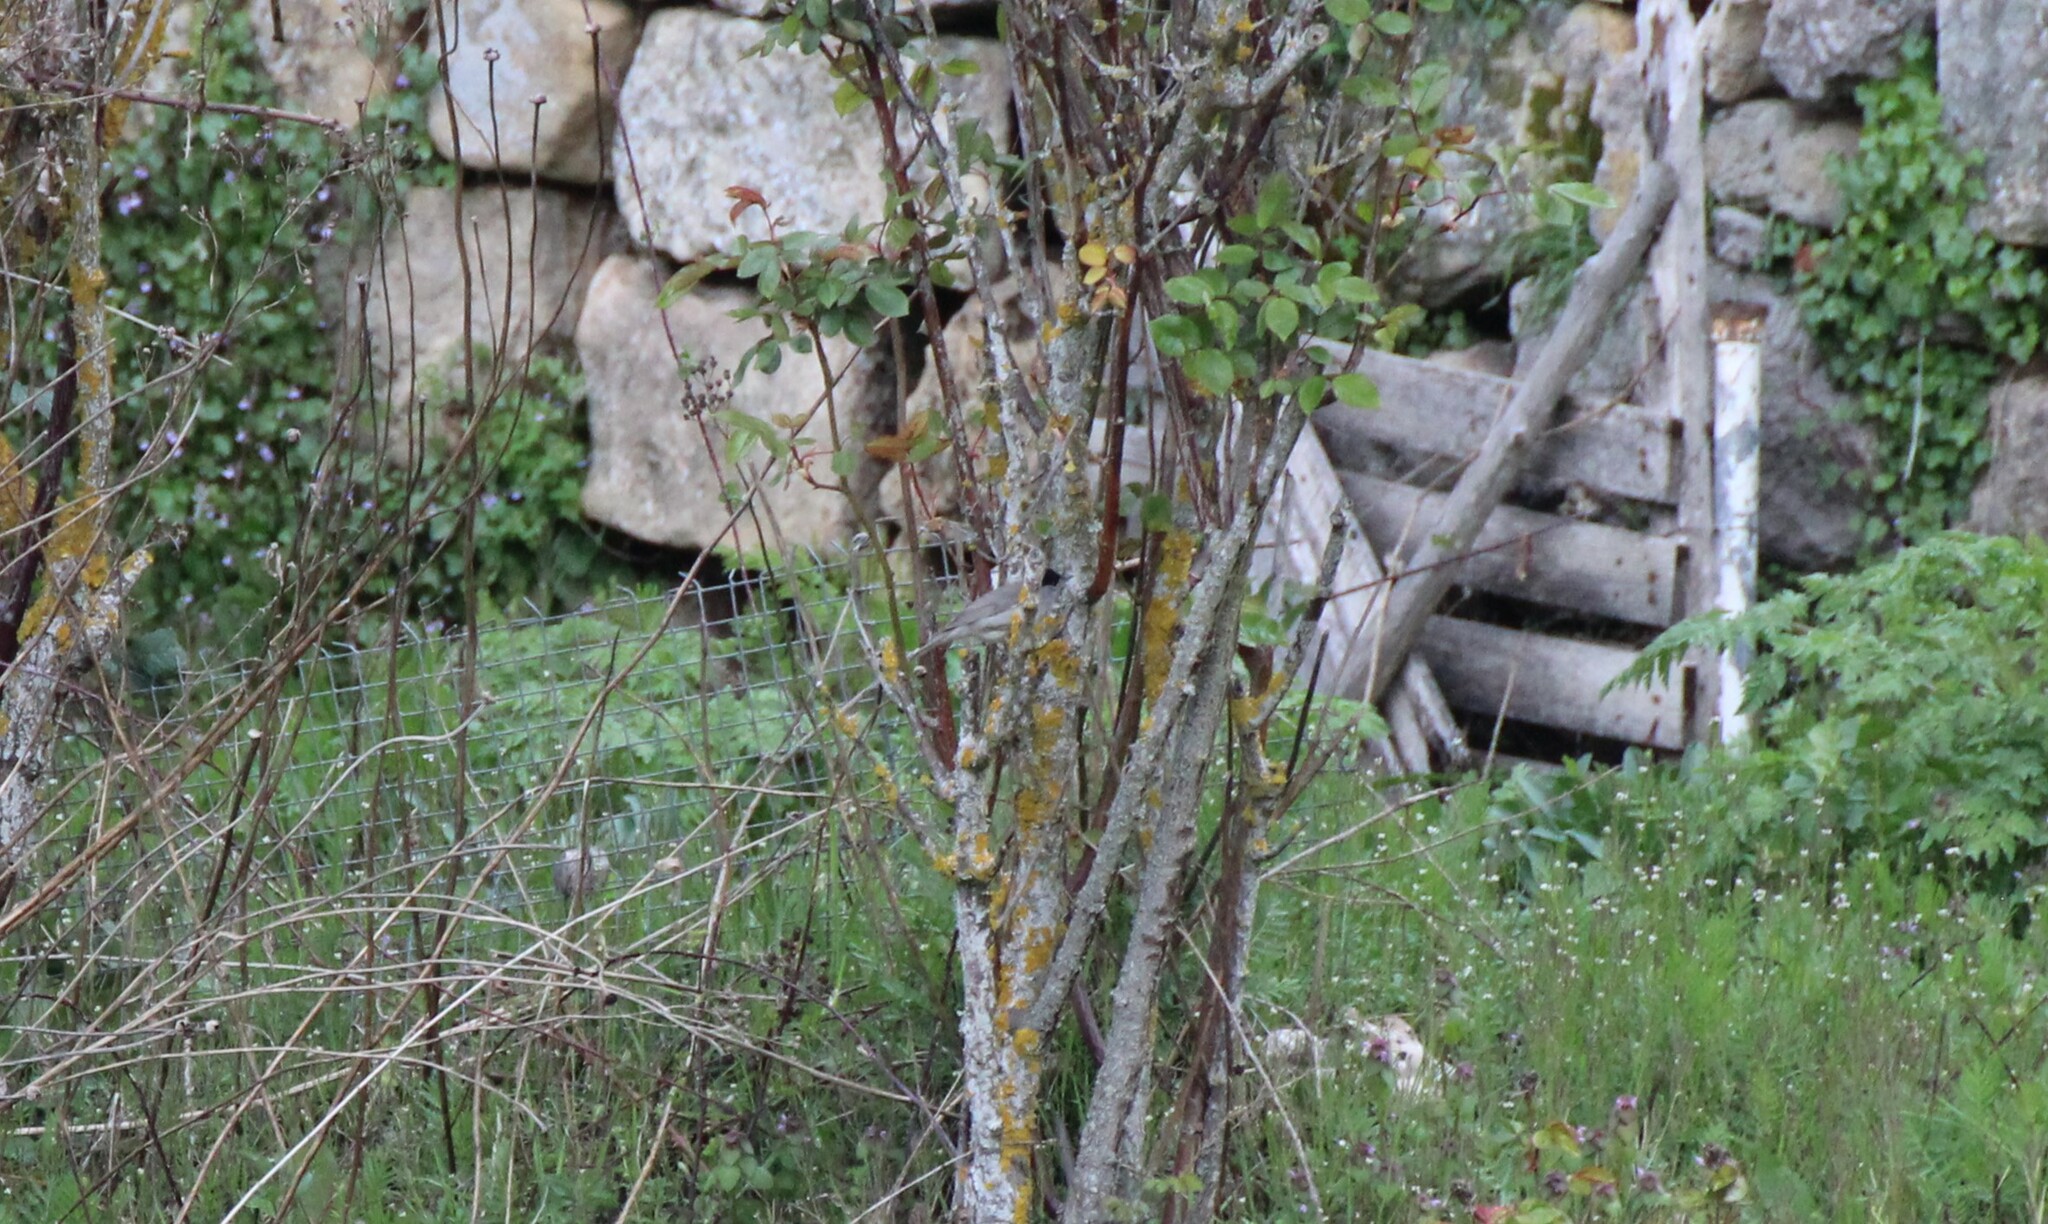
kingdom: Animalia
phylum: Chordata
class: Aves
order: Passeriformes
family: Sylviidae
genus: Sylvia
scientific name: Sylvia atricapilla
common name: Eurasian blackcap
